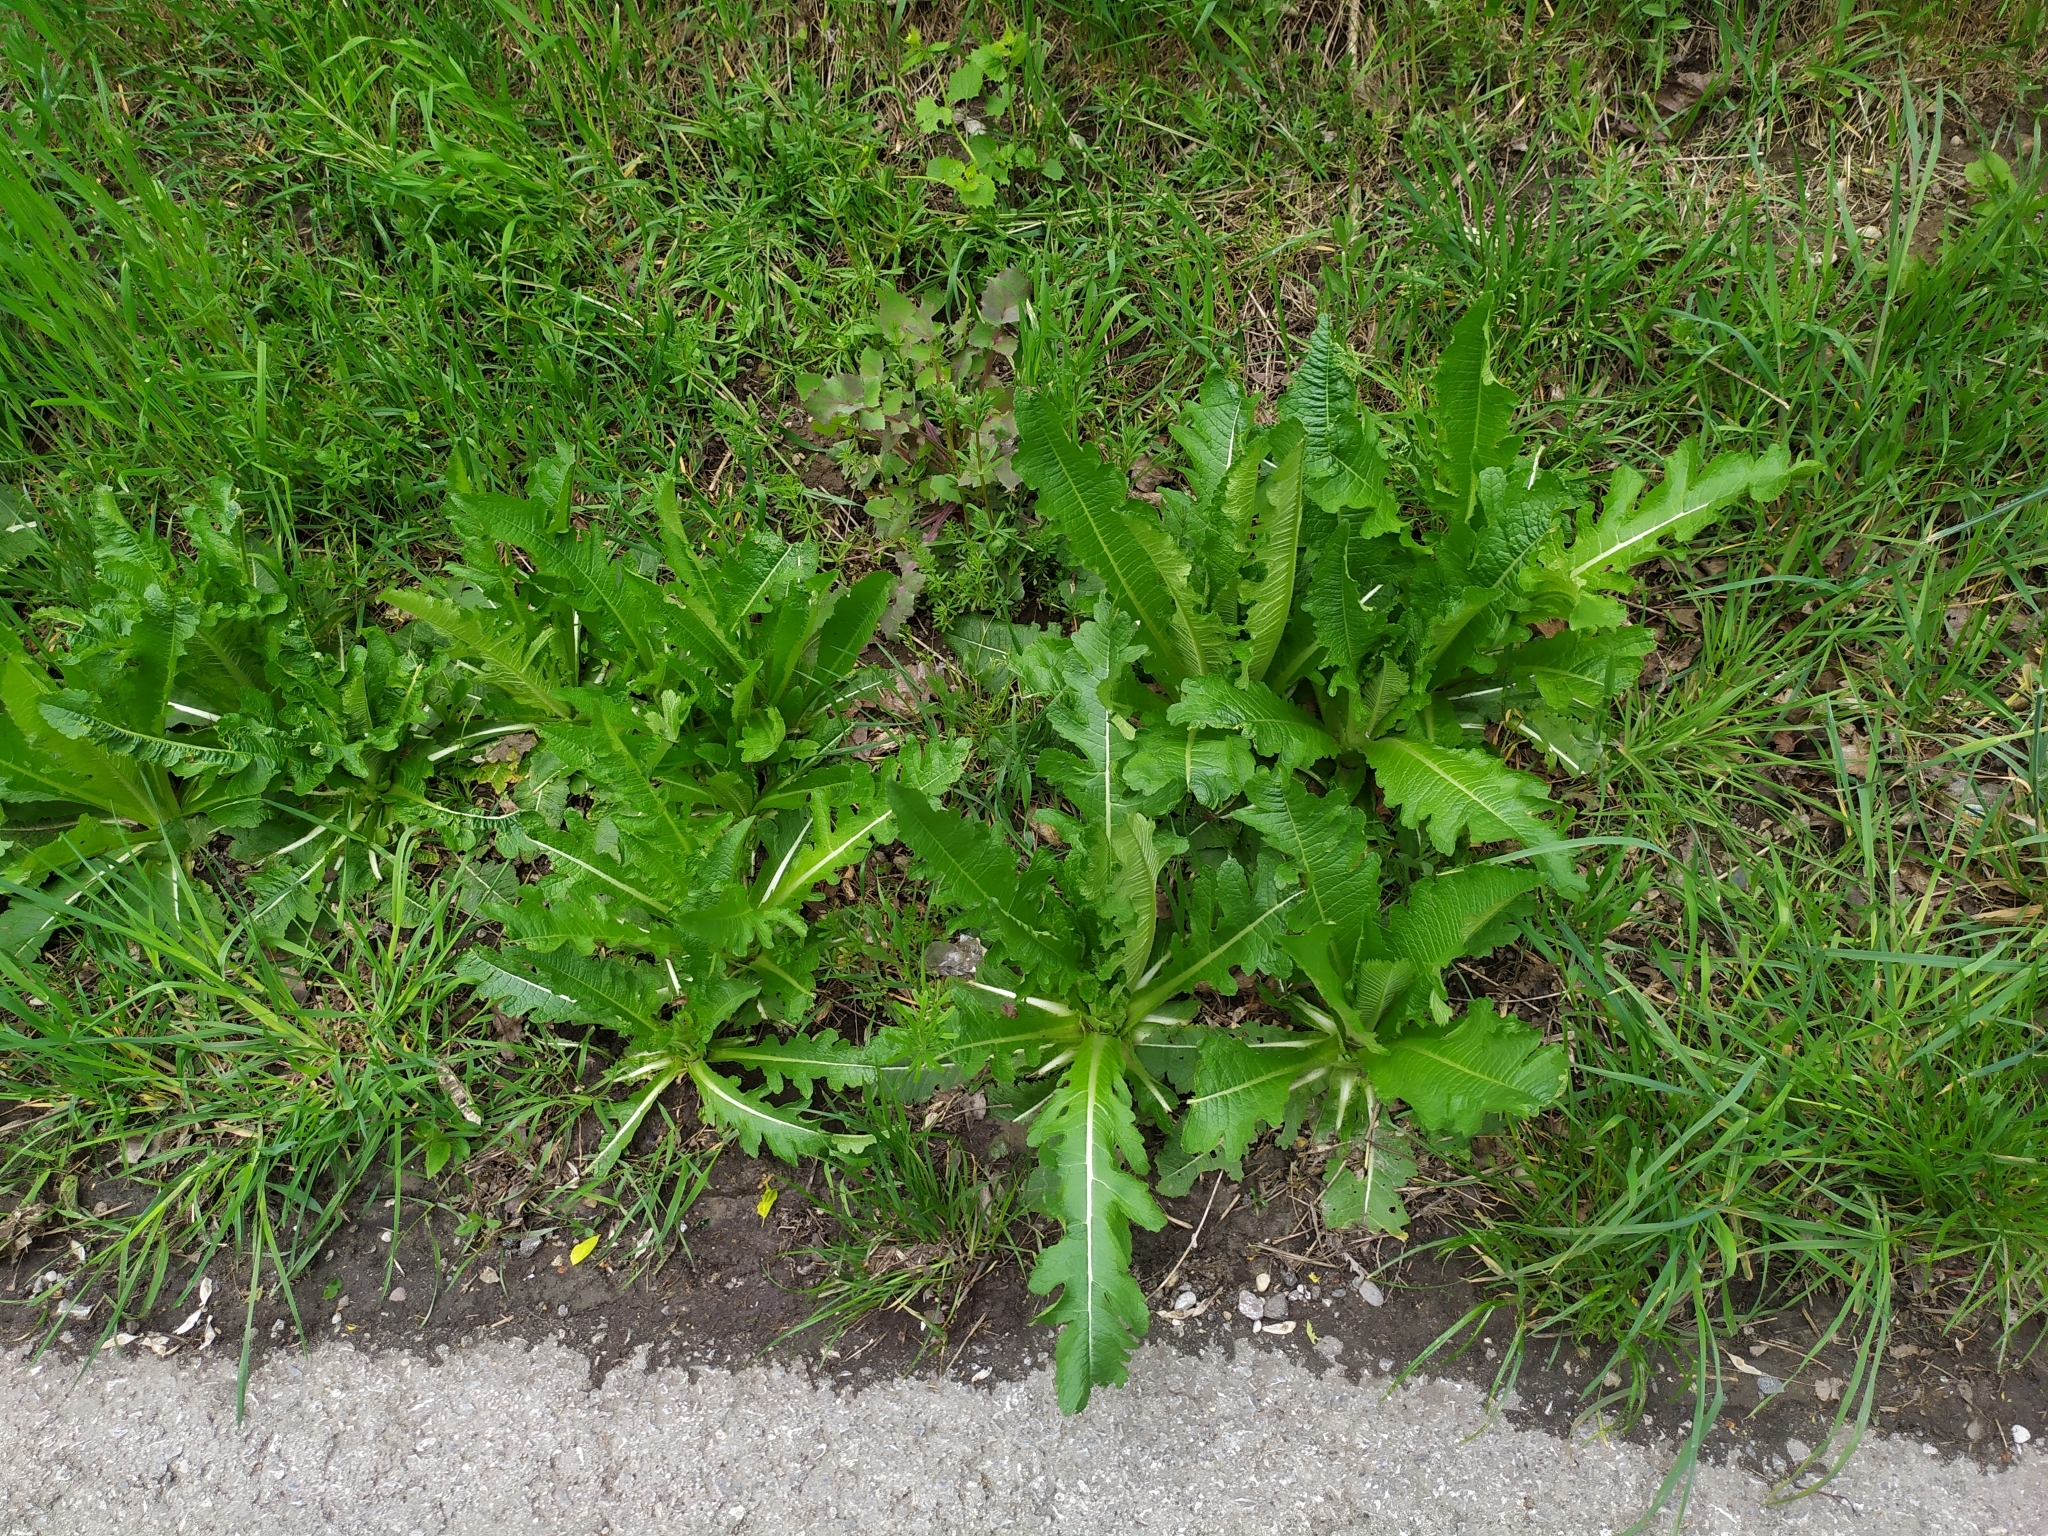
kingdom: Plantae
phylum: Tracheophyta
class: Magnoliopsida
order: Dipsacales
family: Caprifoliaceae
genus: Dipsacus
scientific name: Dipsacus laciniatus
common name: Cut-leaved teasel
